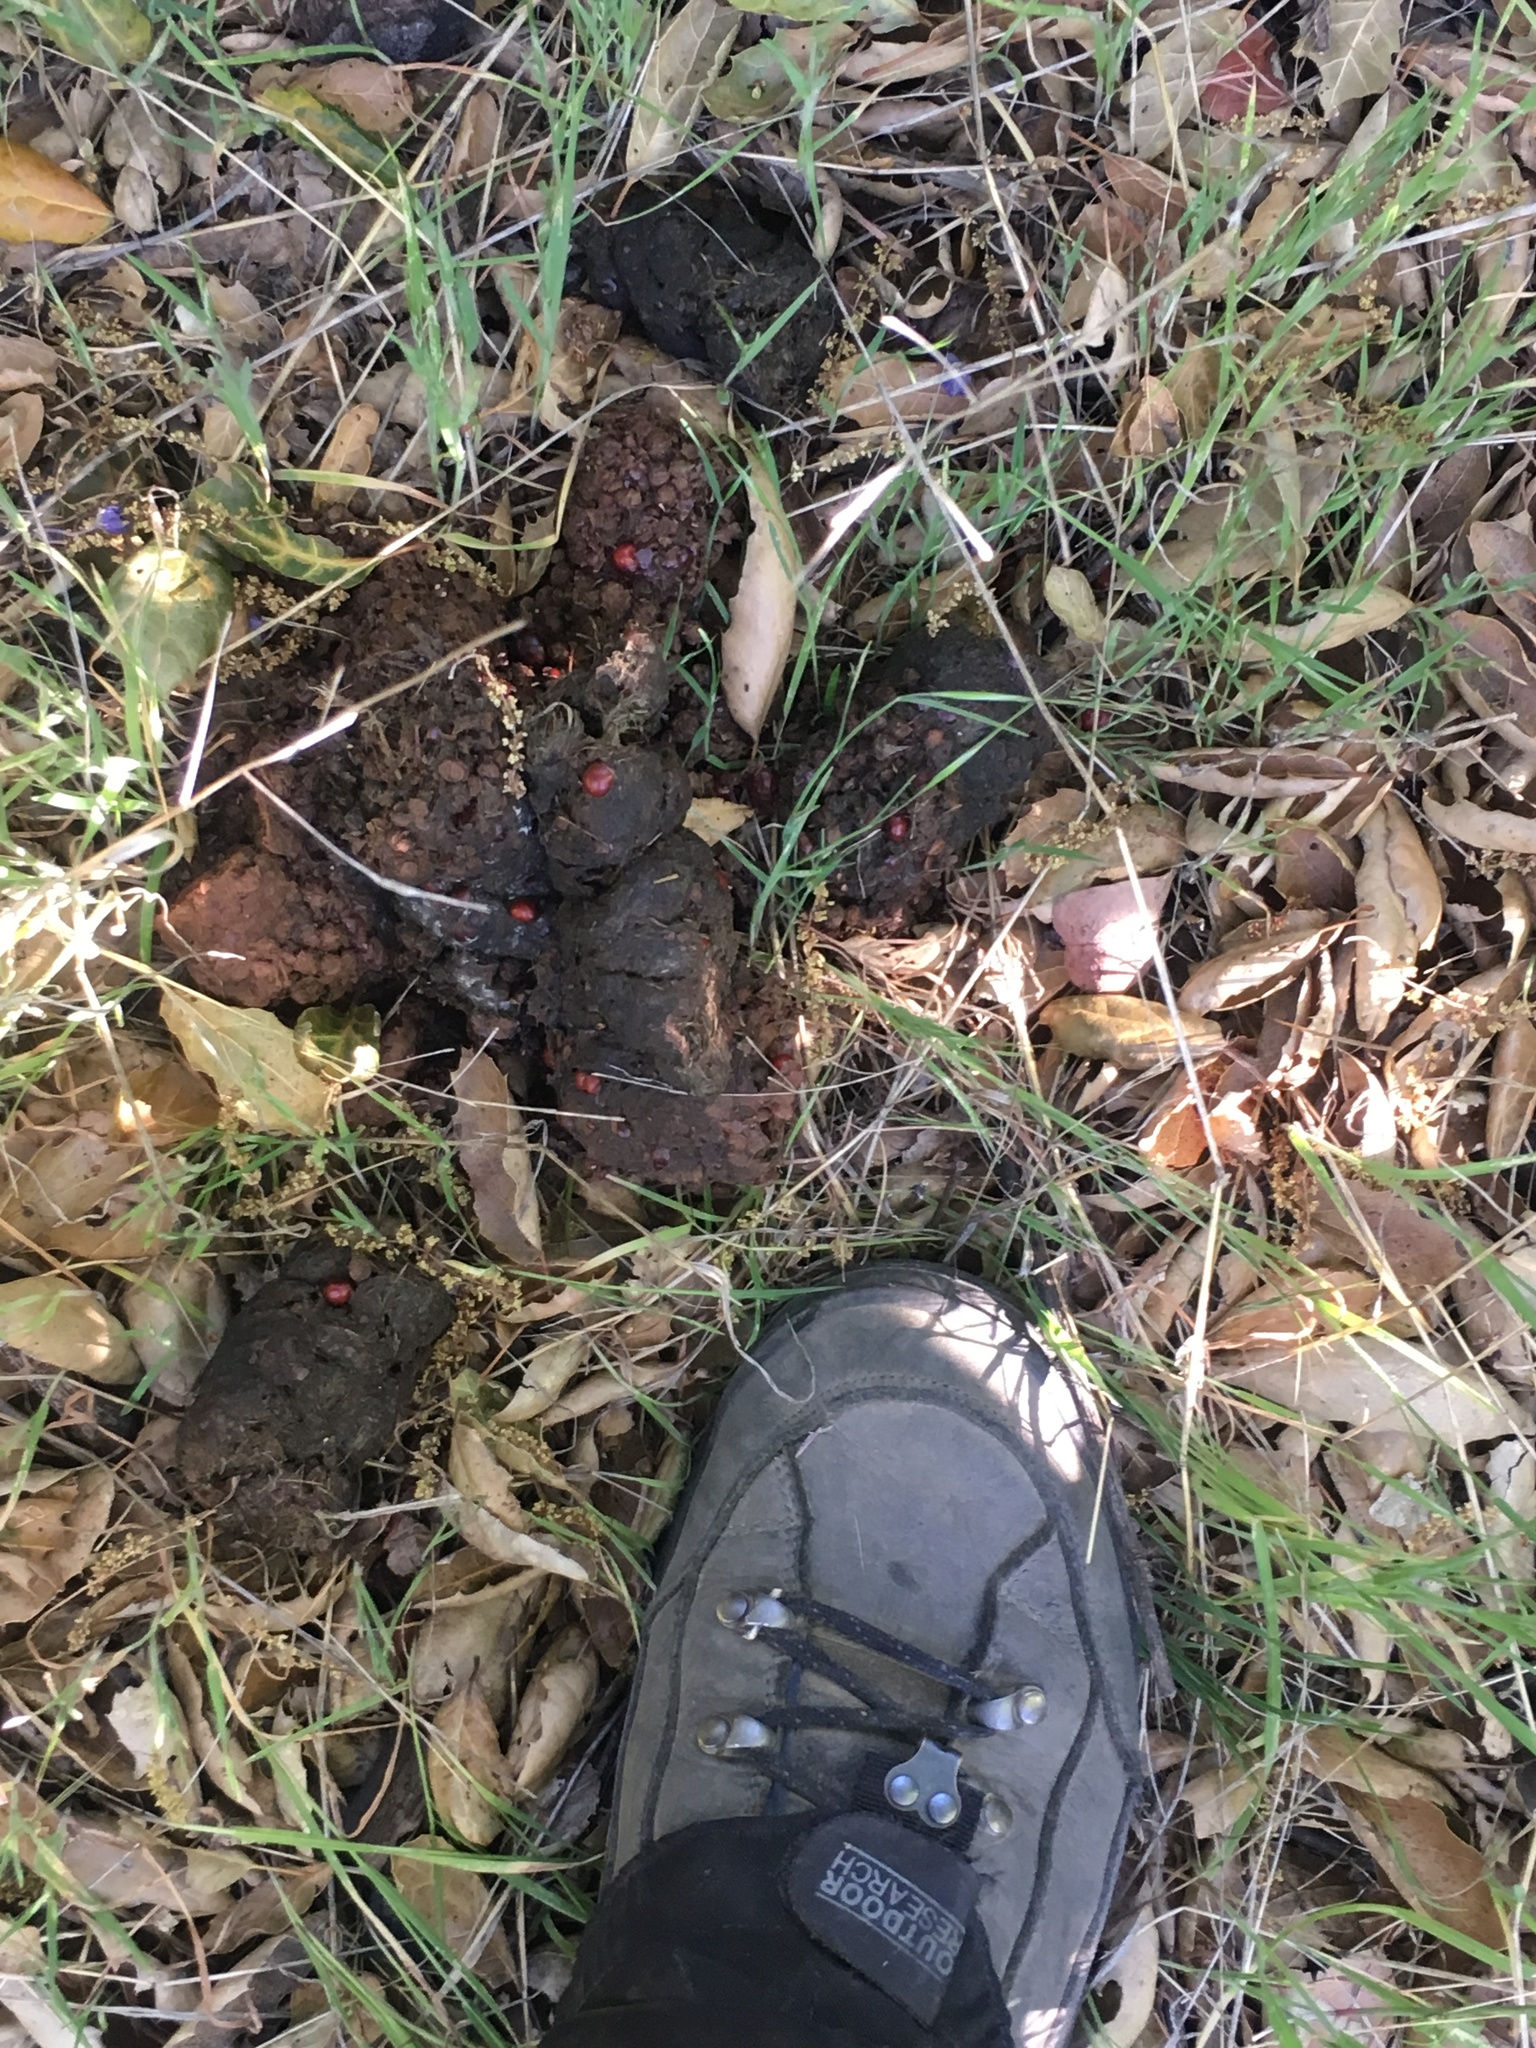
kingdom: Animalia
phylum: Chordata
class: Mammalia
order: Carnivora
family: Ursidae
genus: Ursus
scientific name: Ursus americanus
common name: American black bear
